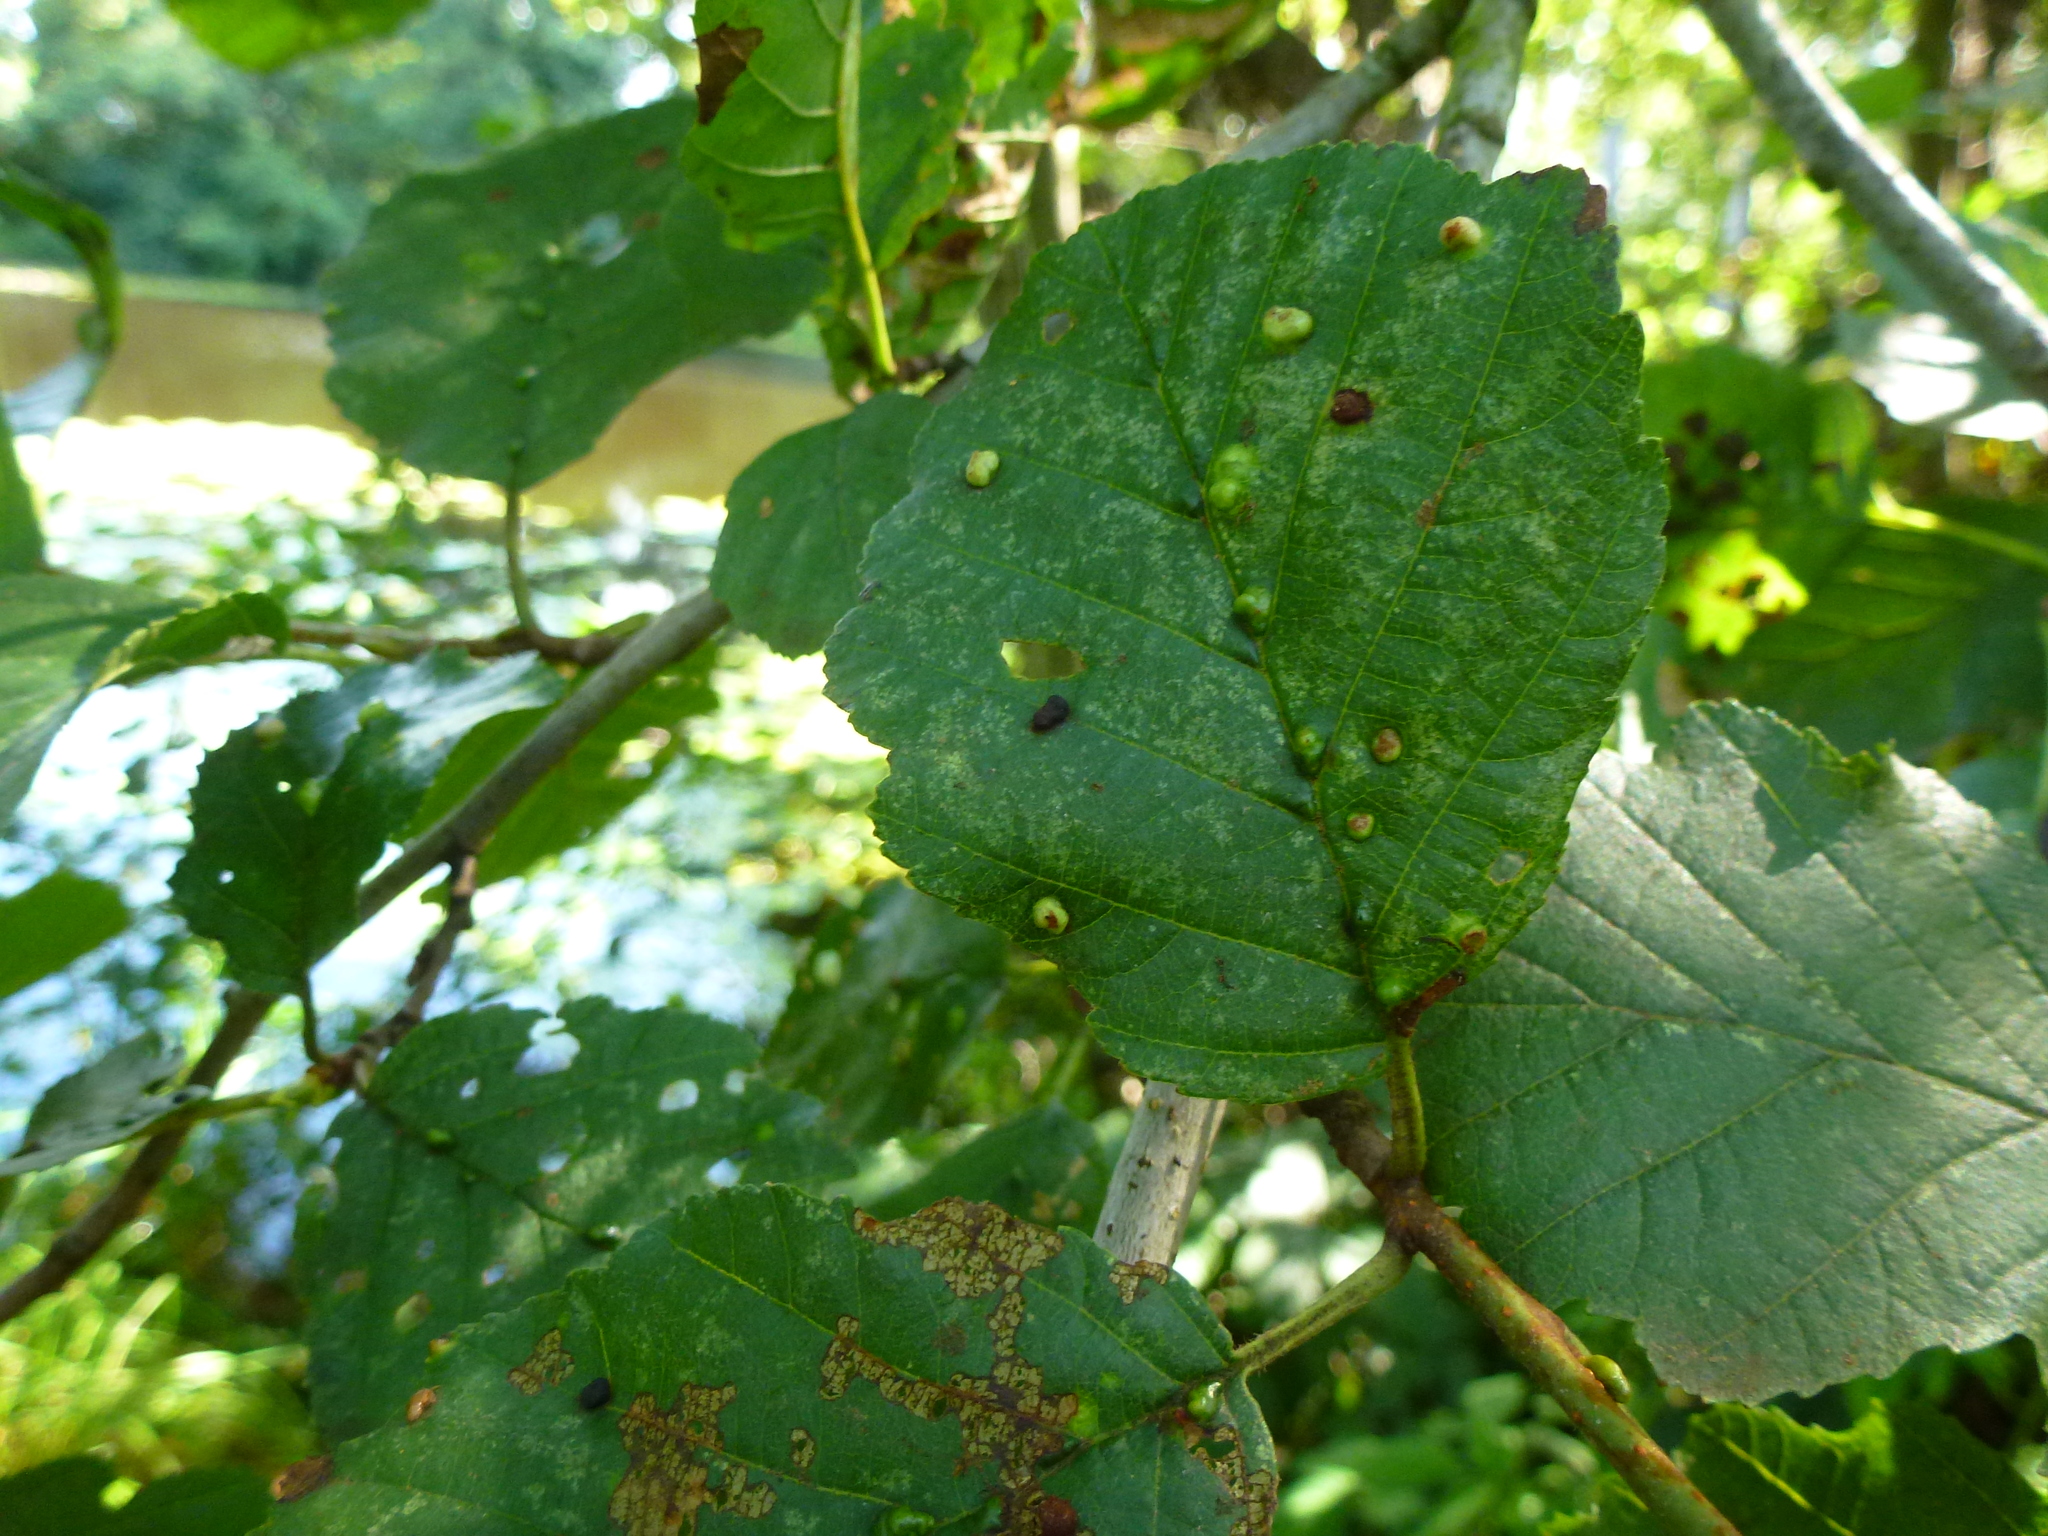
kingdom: Animalia
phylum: Arthropoda
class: Arachnida
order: Trombidiformes
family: Eriophyidae
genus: Eriophyes
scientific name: Eriophyes inangulis
